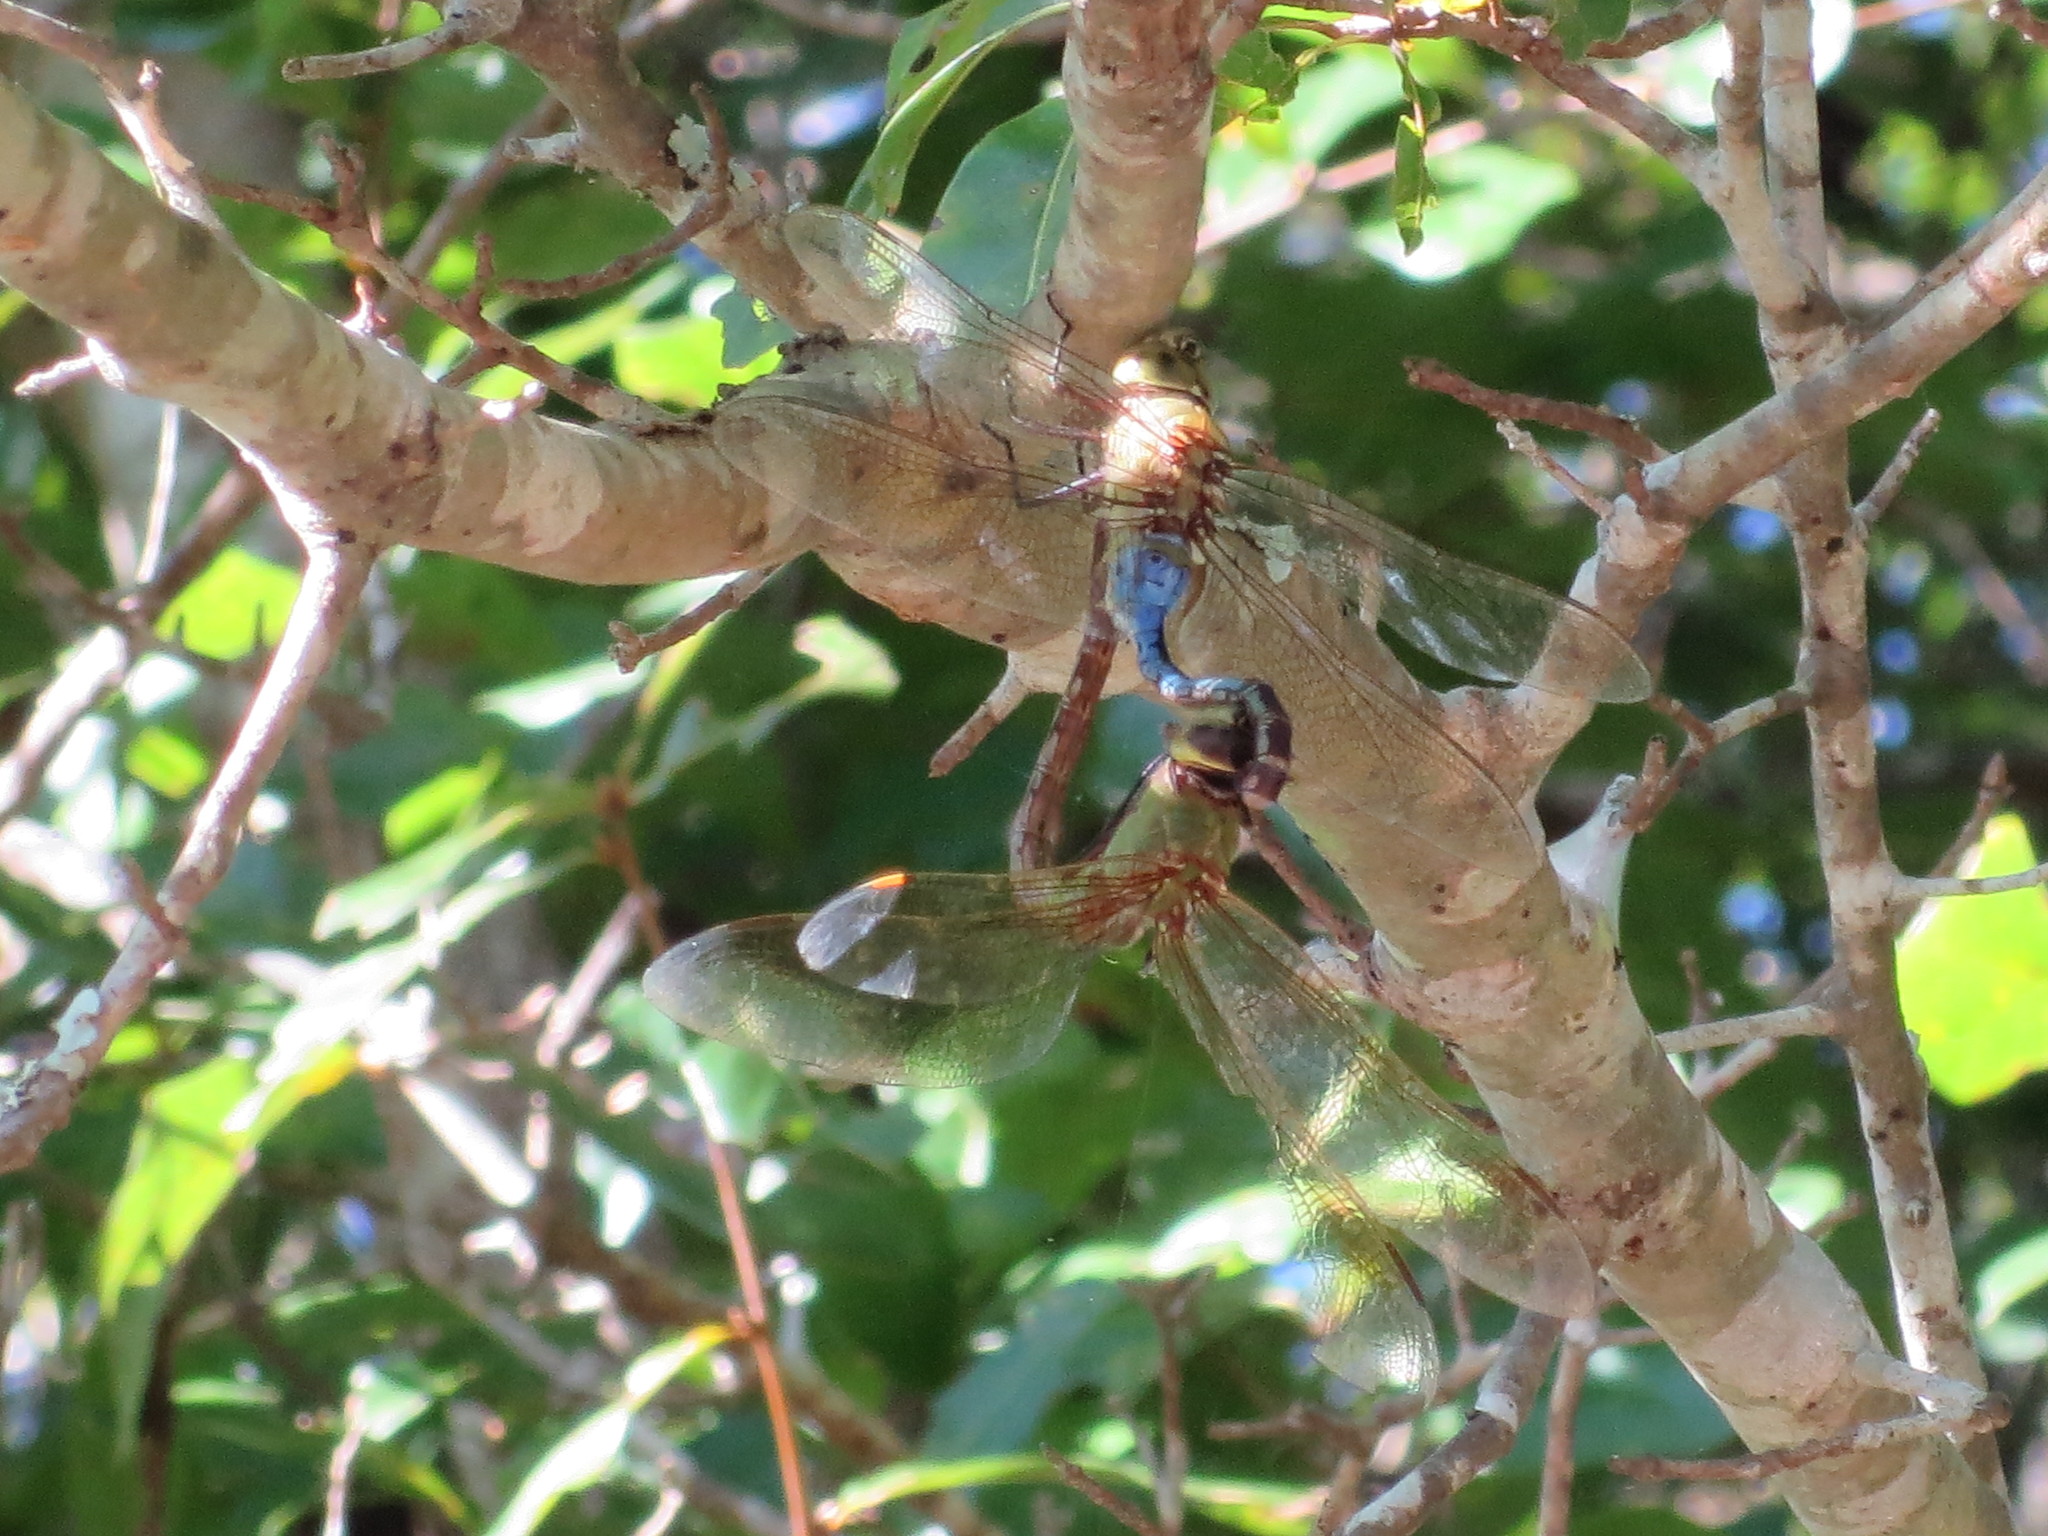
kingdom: Animalia
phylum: Arthropoda
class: Insecta
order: Odonata
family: Aeshnidae
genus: Anax
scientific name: Anax junius
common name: Common green darner
